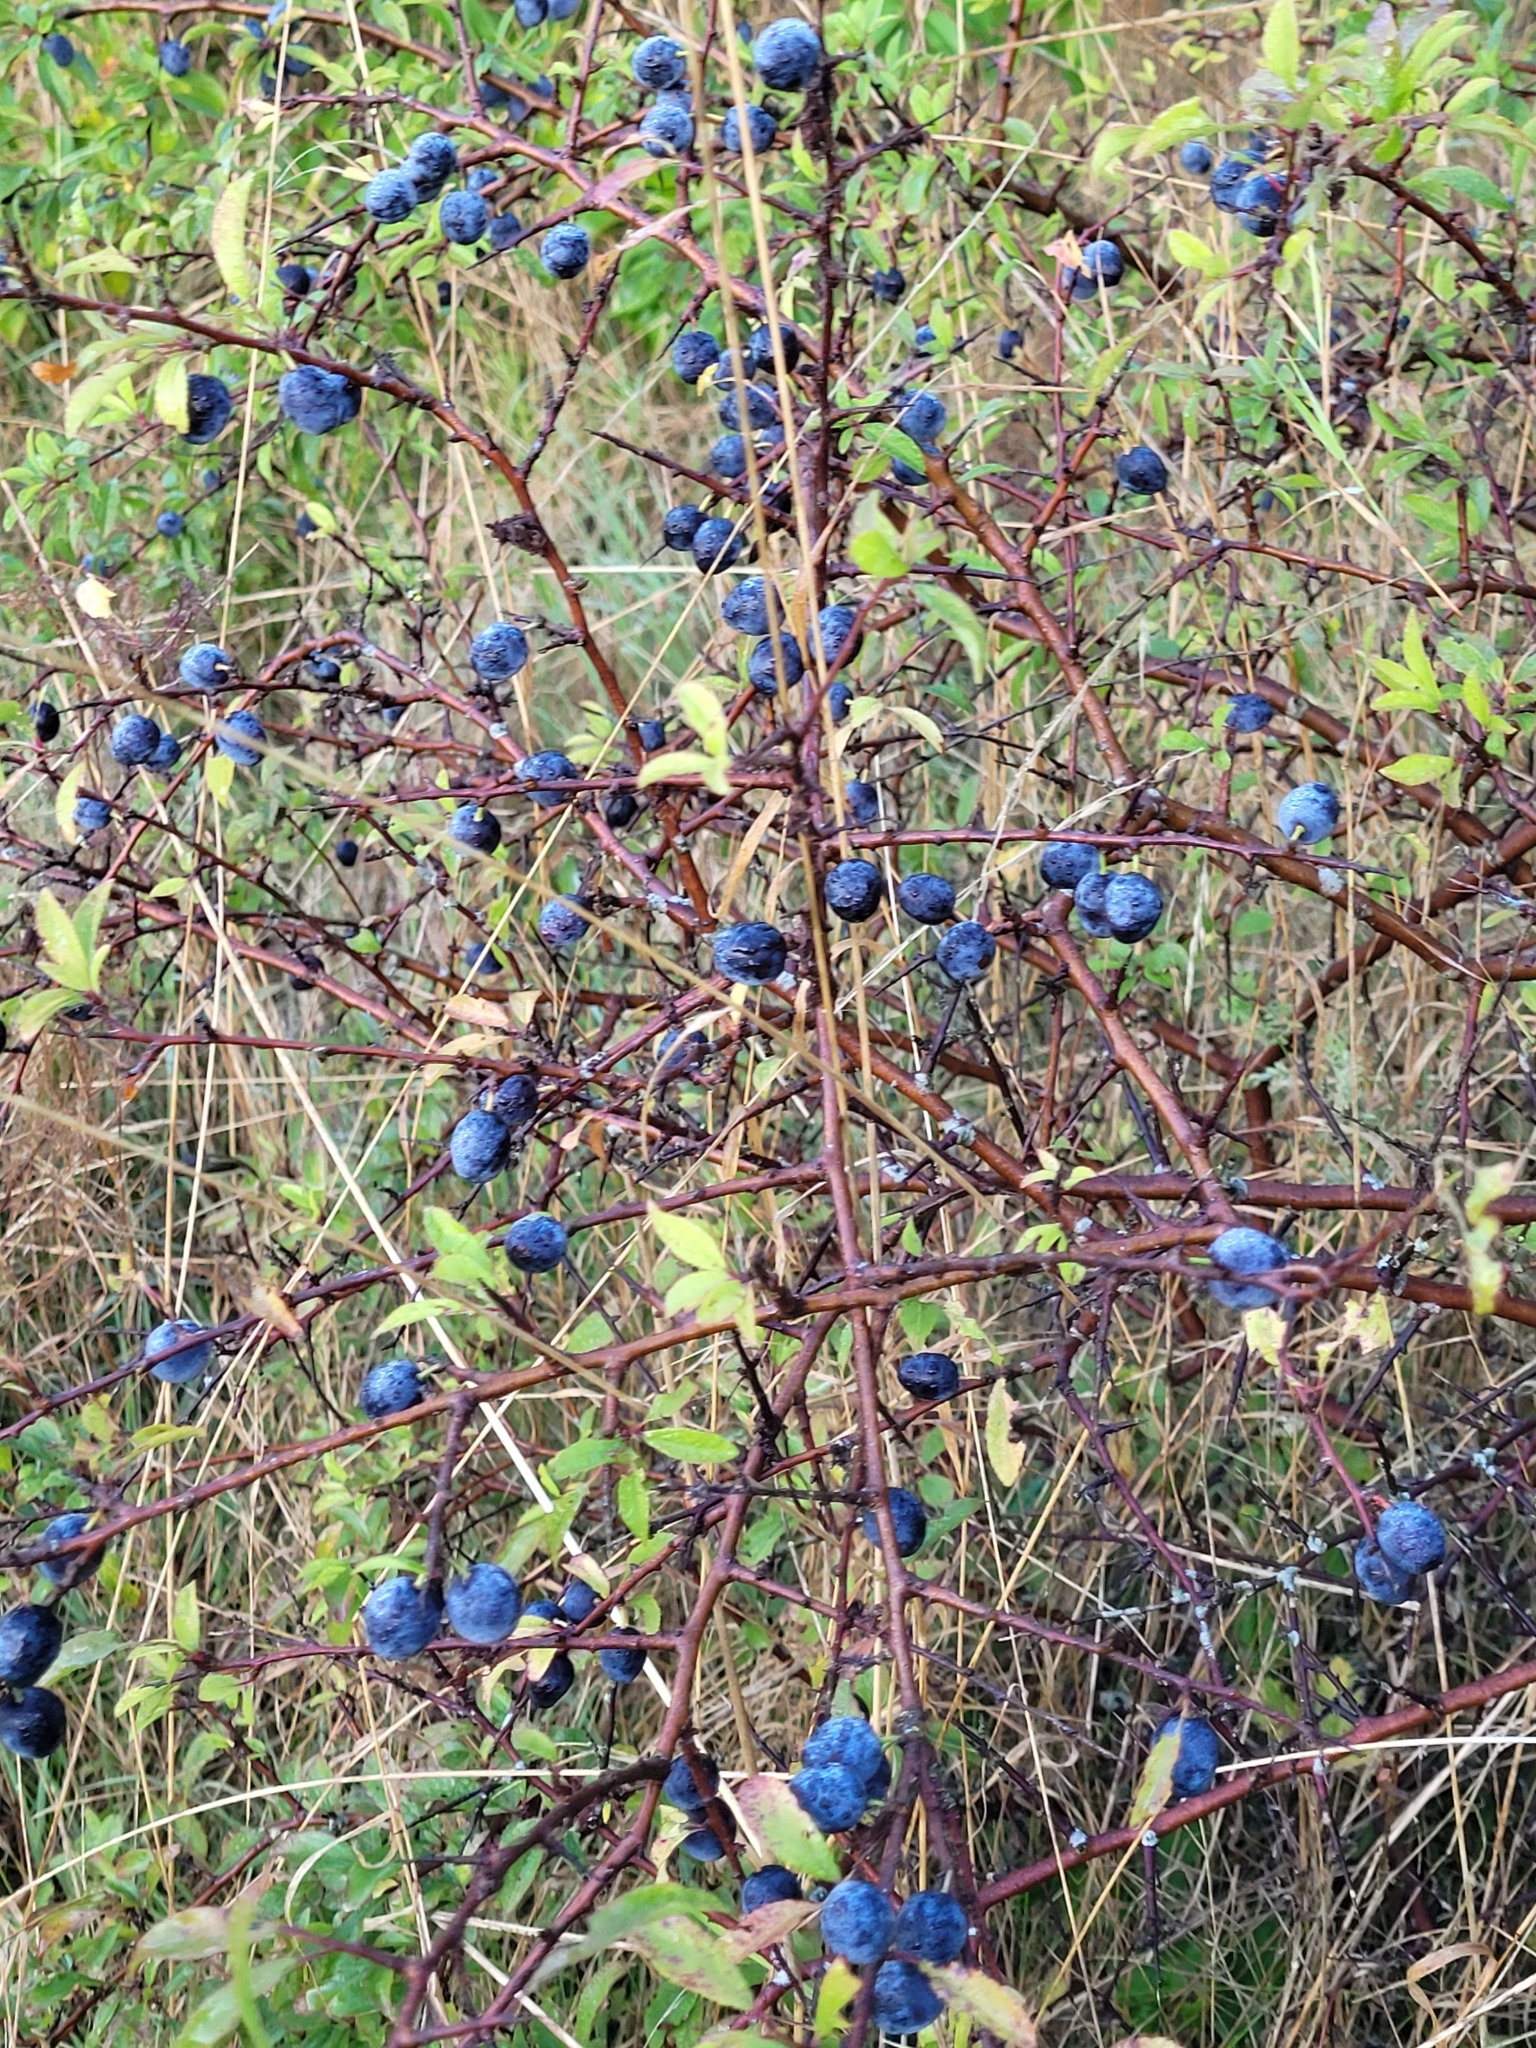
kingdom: Plantae
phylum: Tracheophyta
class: Magnoliopsida
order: Rosales
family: Rosaceae
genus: Prunus
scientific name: Prunus spinosa
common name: Blackthorn
